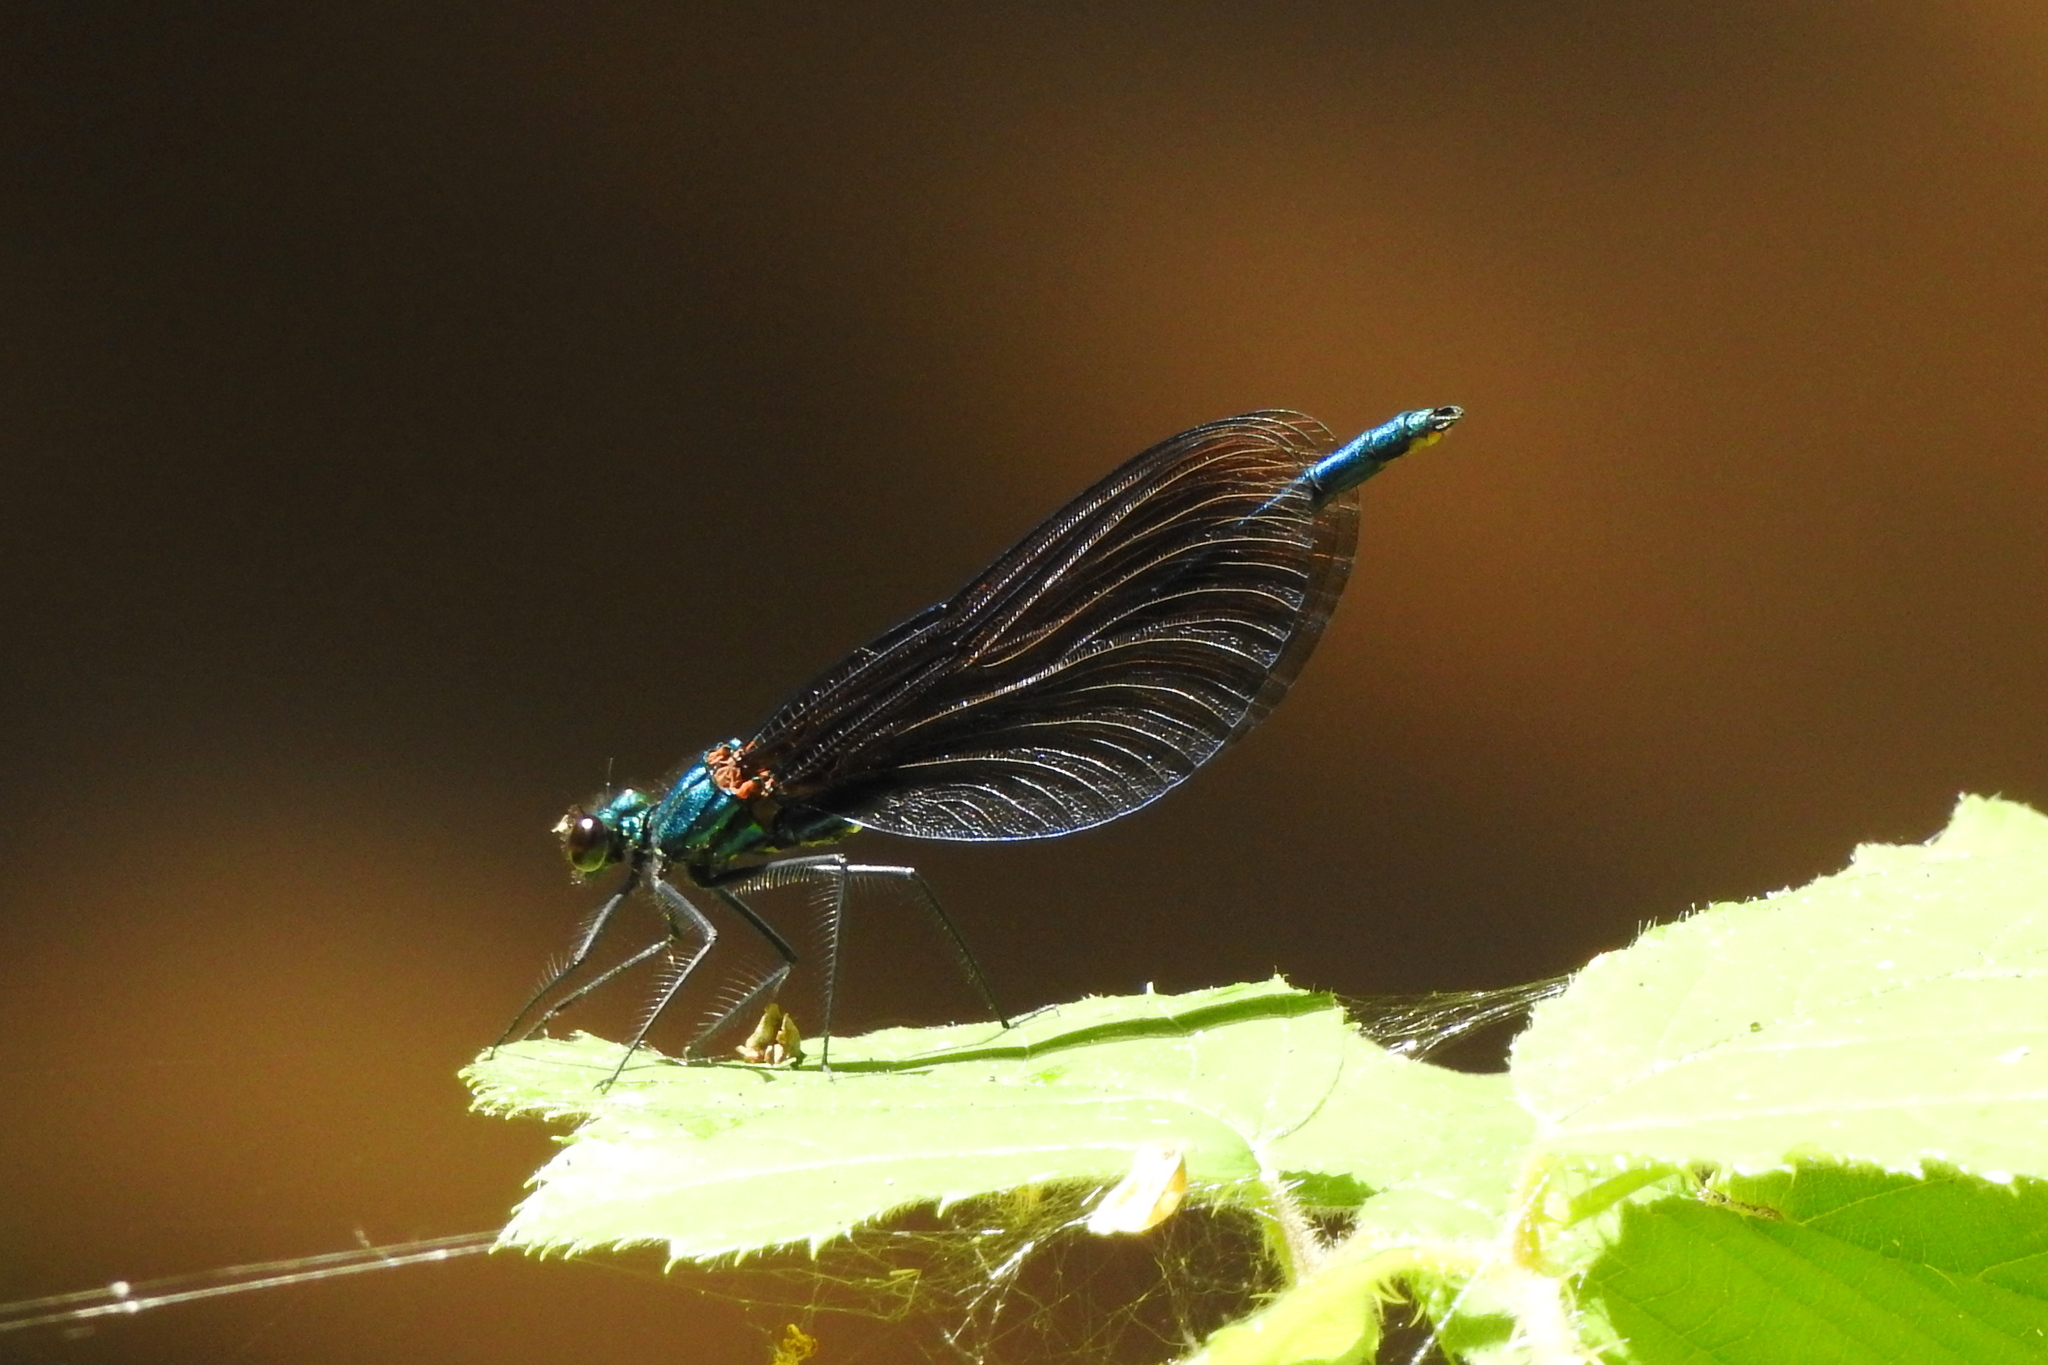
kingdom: Animalia
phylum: Arthropoda
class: Insecta
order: Odonata
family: Calopterygidae
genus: Calopteryx
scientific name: Calopteryx virgo
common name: Beautiful demoiselle
